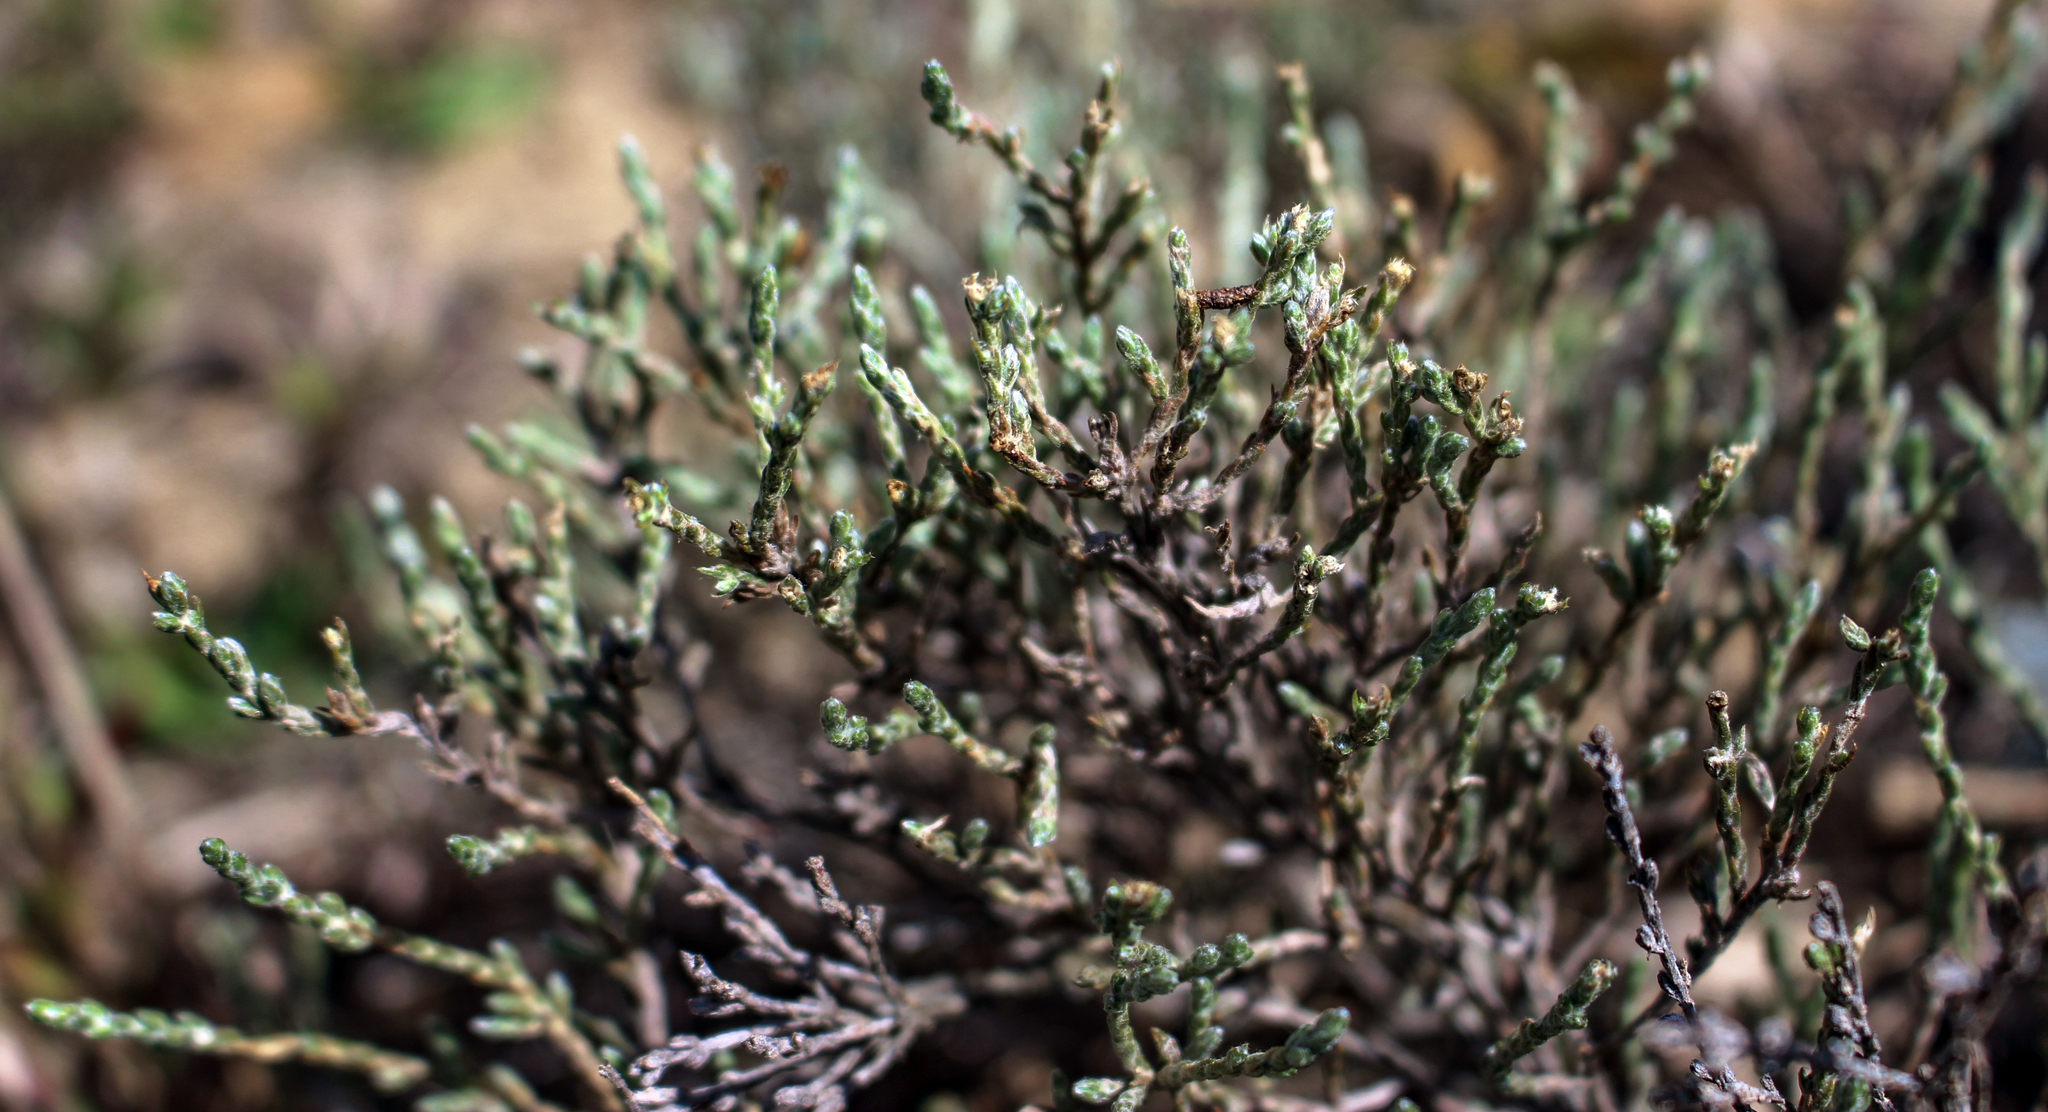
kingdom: Plantae
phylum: Tracheophyta
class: Magnoliopsida
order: Malvales
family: Cistaceae
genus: Hudsonia
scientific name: Hudsonia tomentosa
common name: Beach-heath
